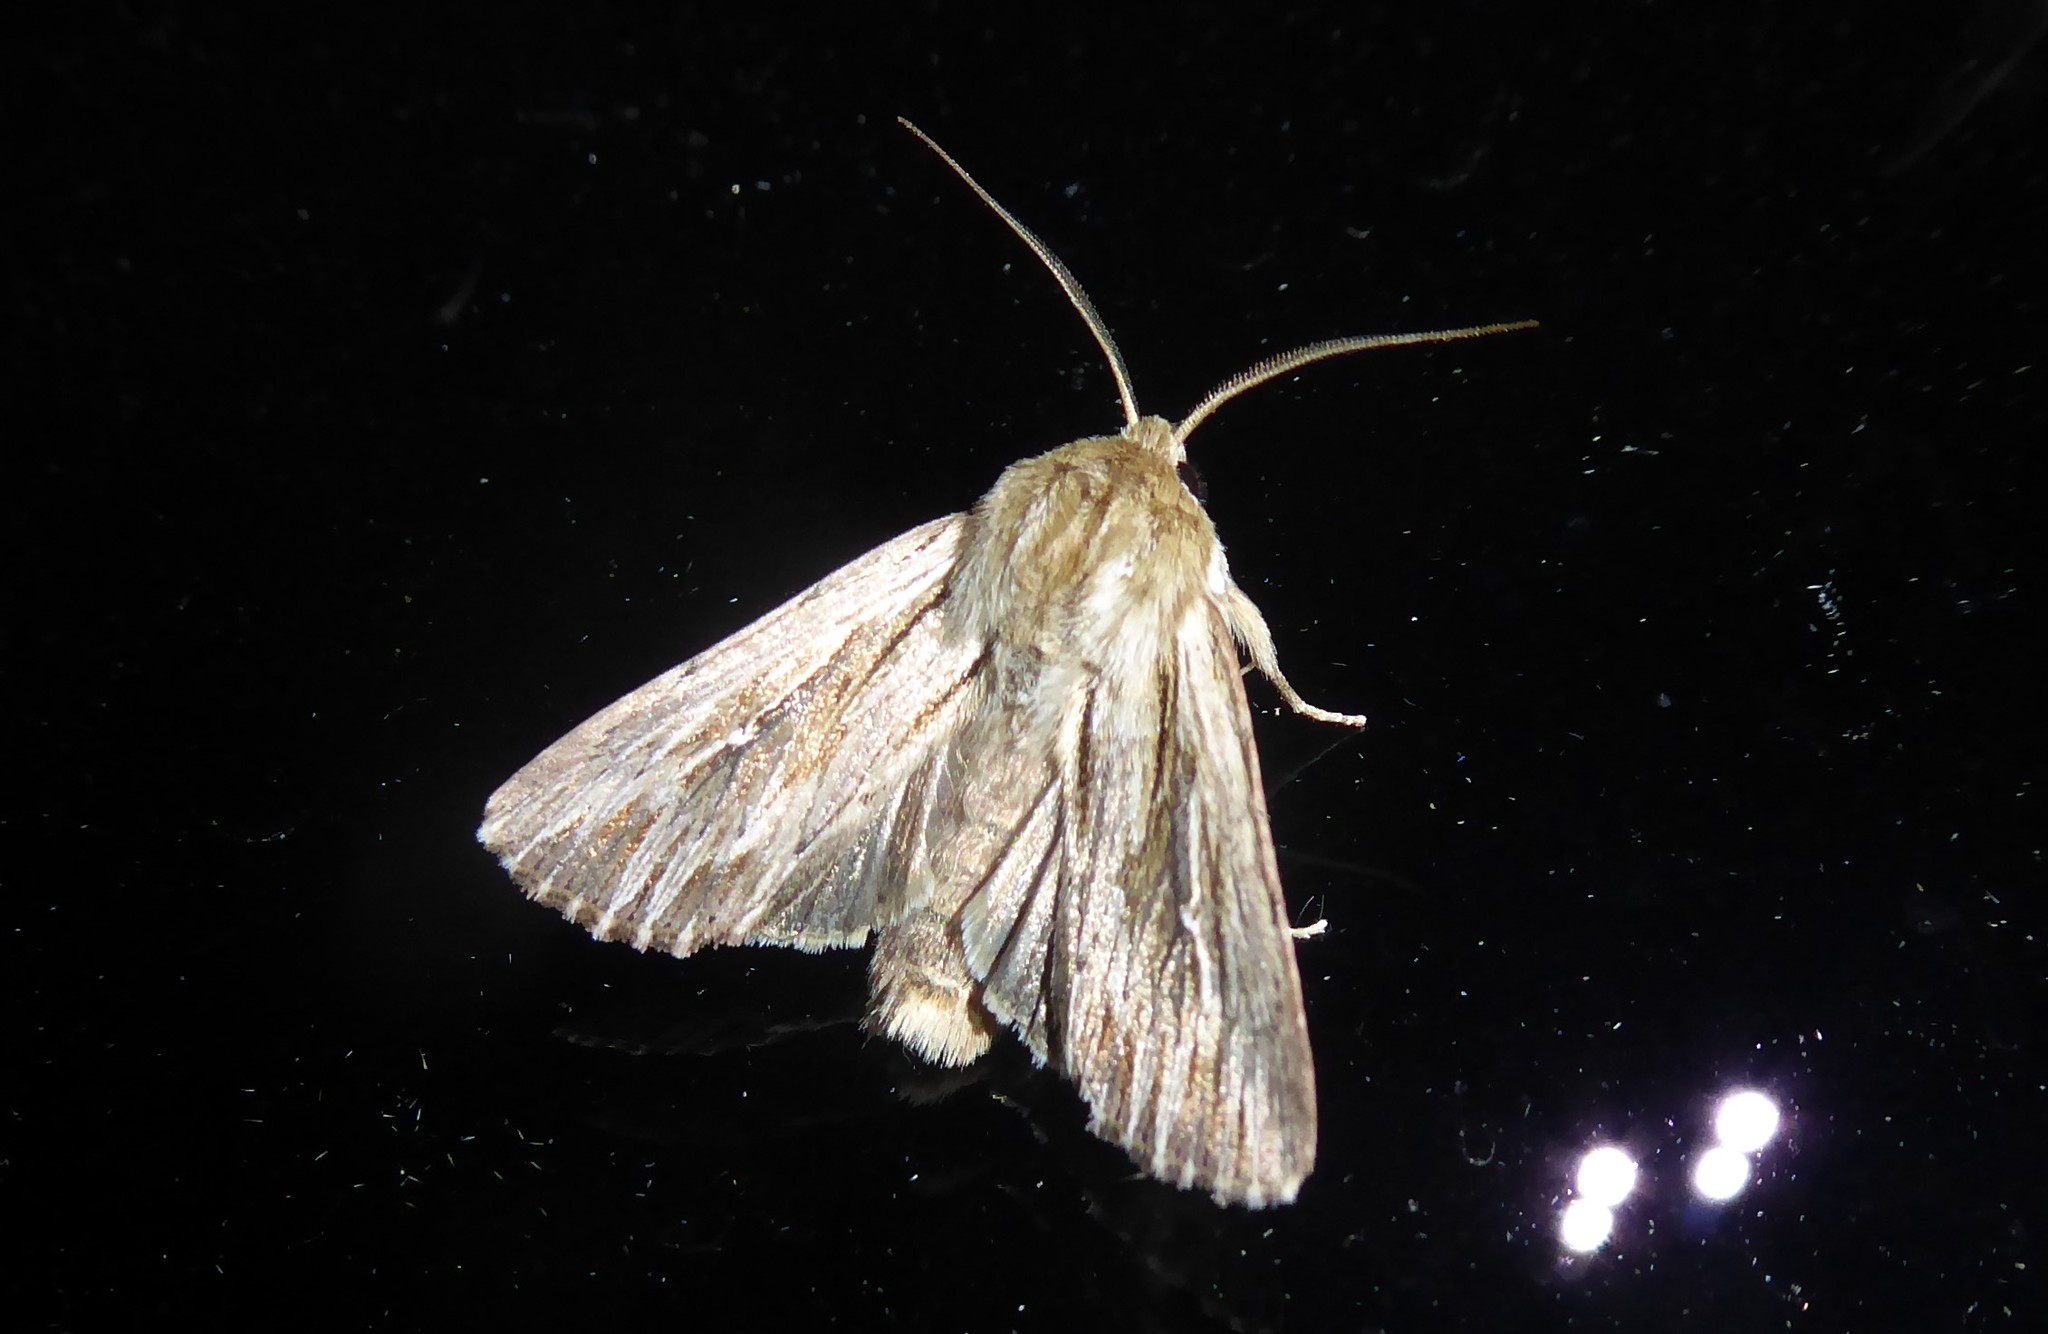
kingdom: Animalia
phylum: Arthropoda
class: Insecta
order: Lepidoptera
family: Noctuidae
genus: Persectania
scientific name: Persectania aversa
